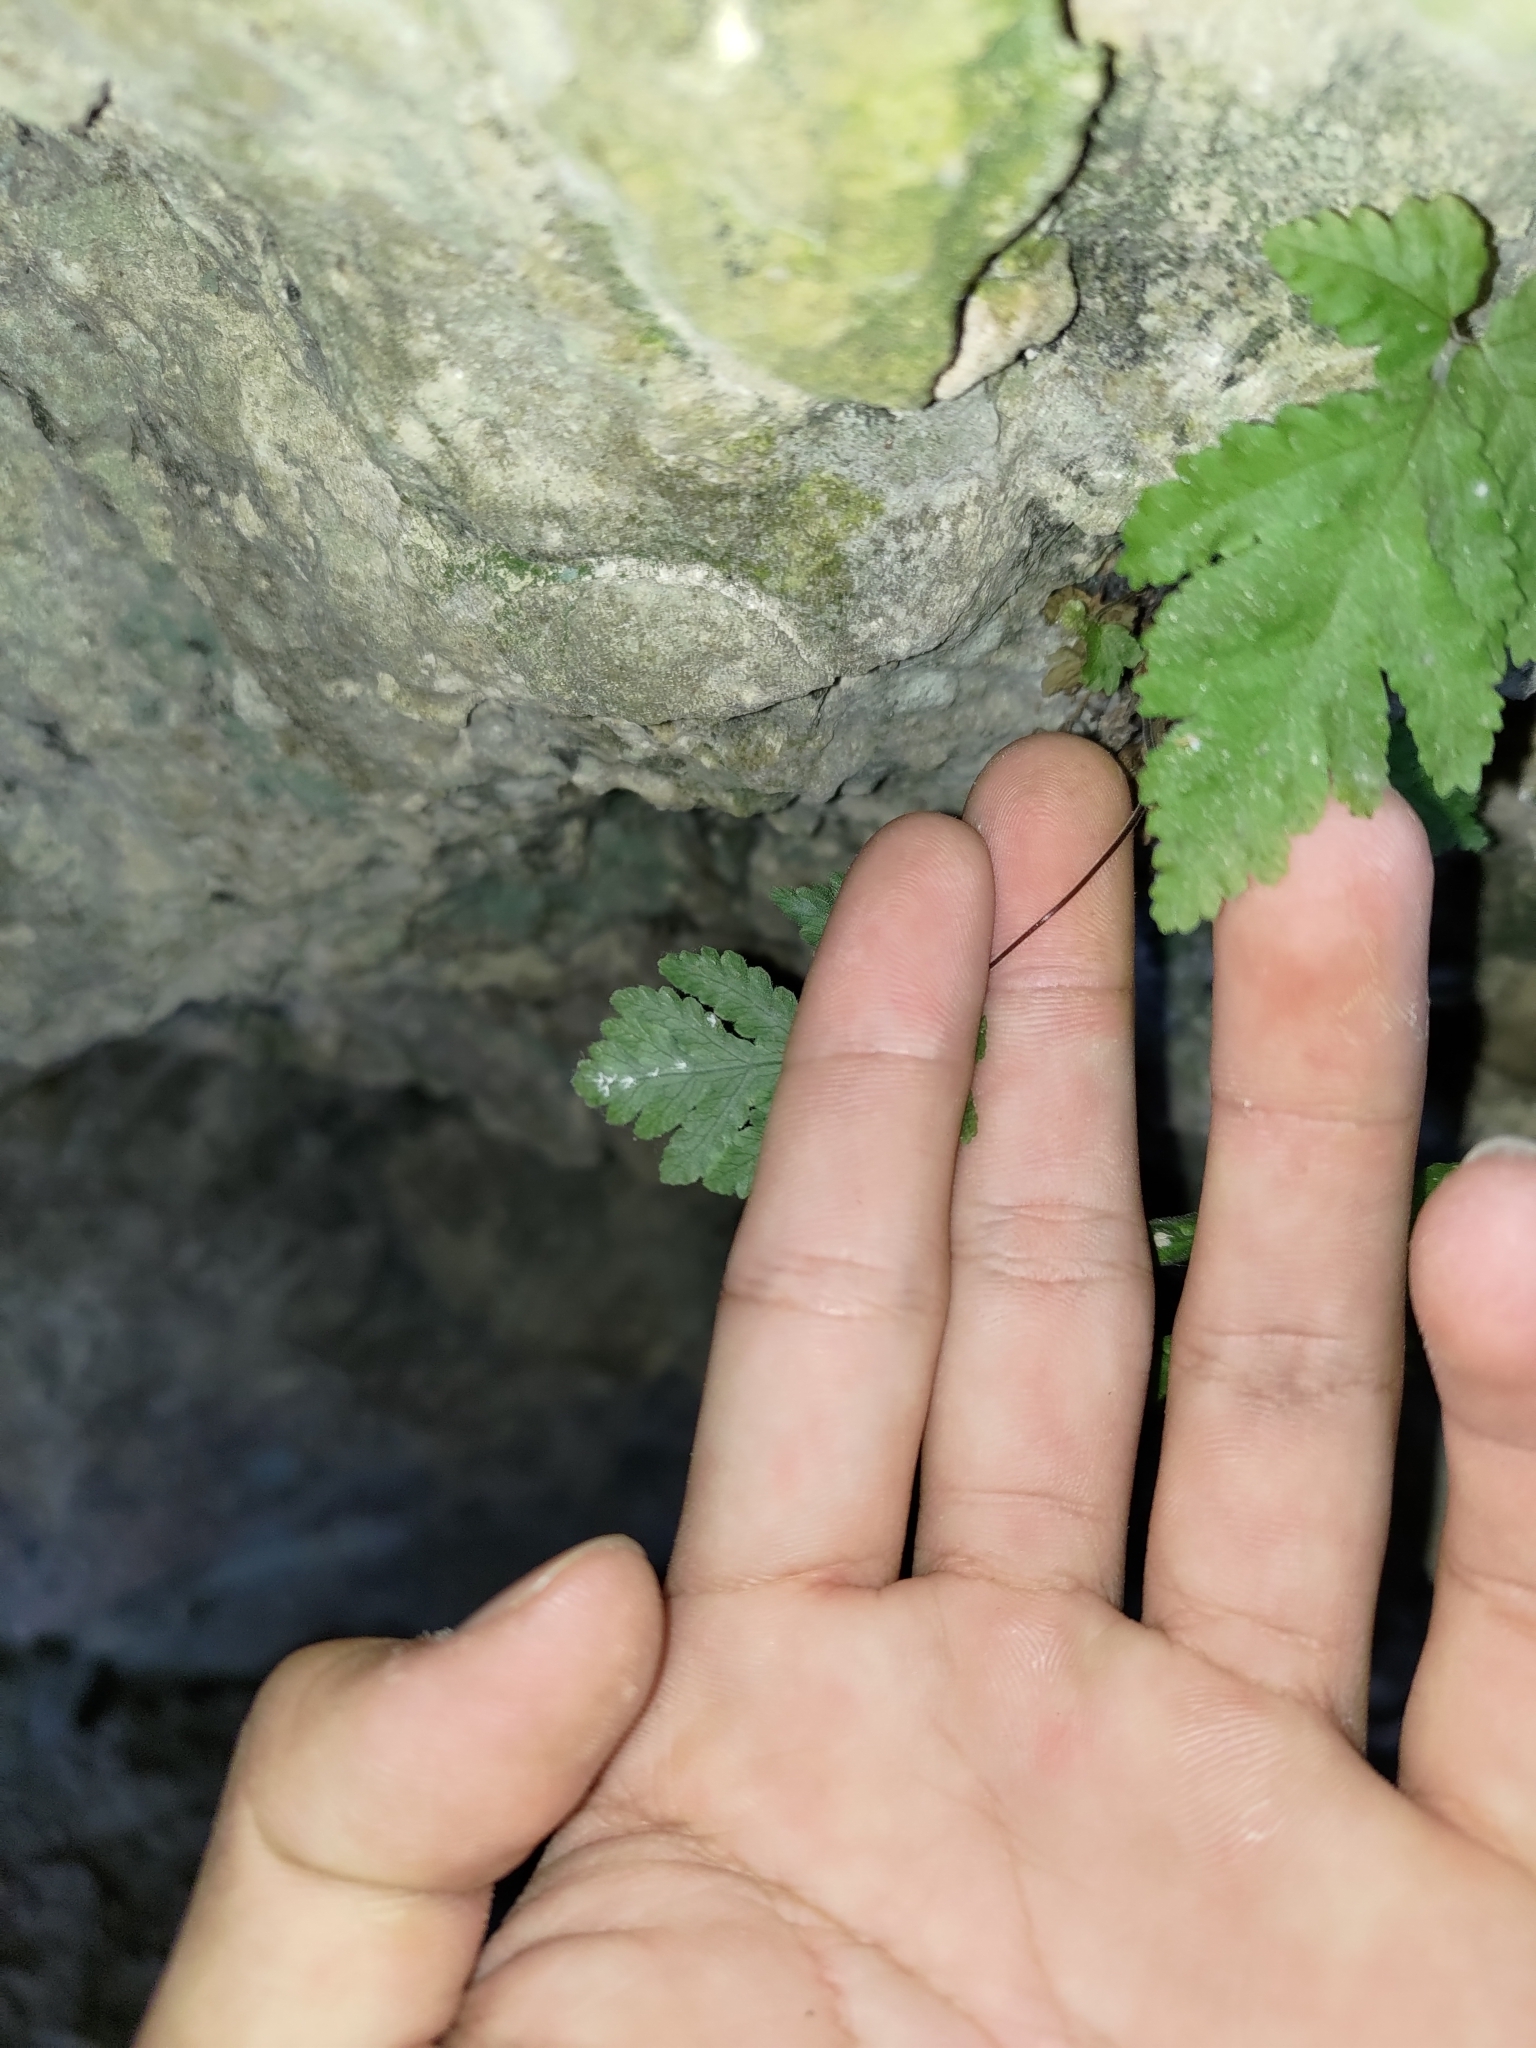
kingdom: Plantae
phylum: Tracheophyta
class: Polypodiopsida
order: Polypodiales
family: Tectariaceae
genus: Tectaria
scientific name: Tectaria membranacea
